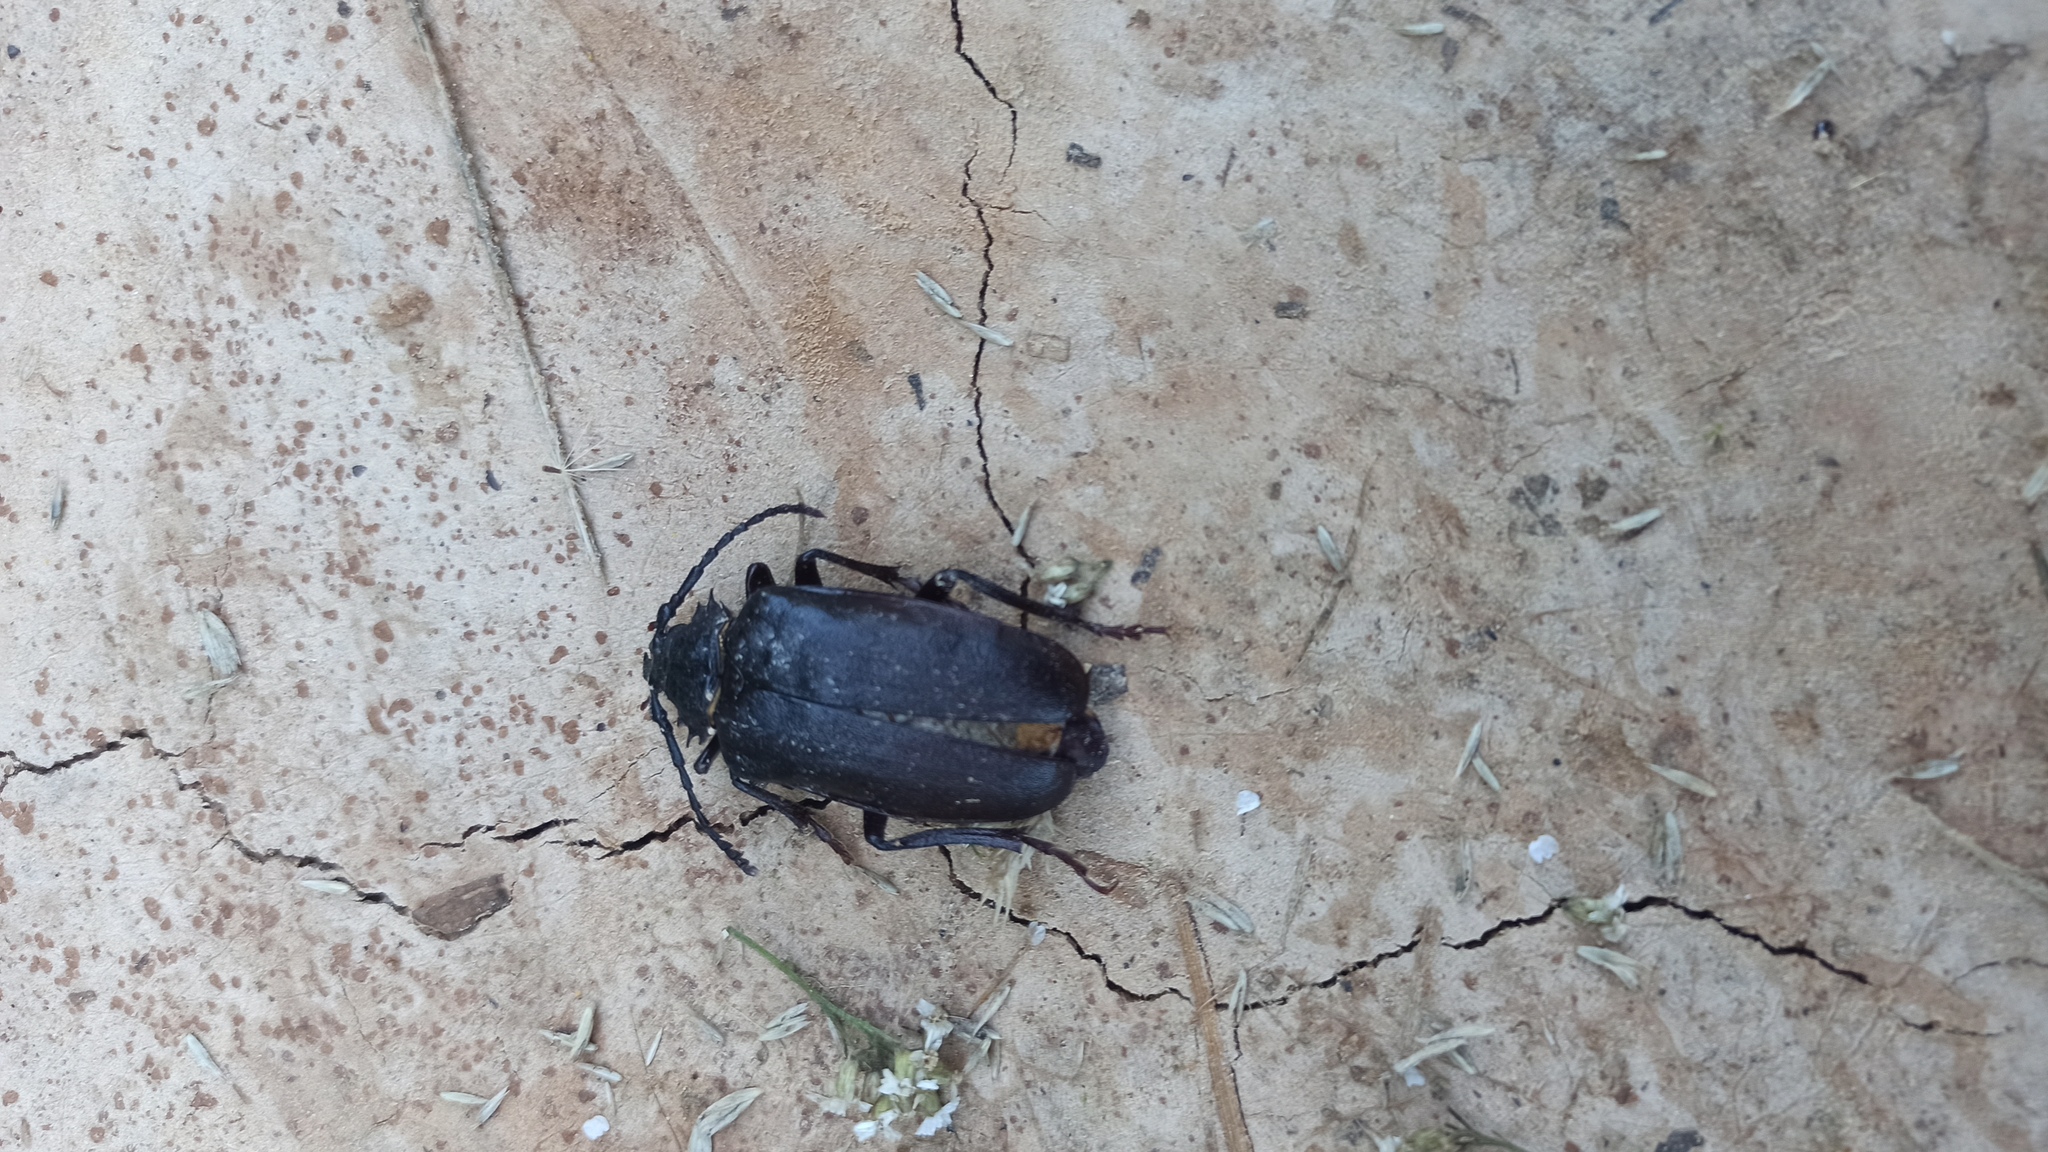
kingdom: Animalia
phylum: Arthropoda
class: Insecta
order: Coleoptera
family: Cerambycidae
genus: Prionus
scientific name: Prionus coriarius
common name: Tanner beetle
